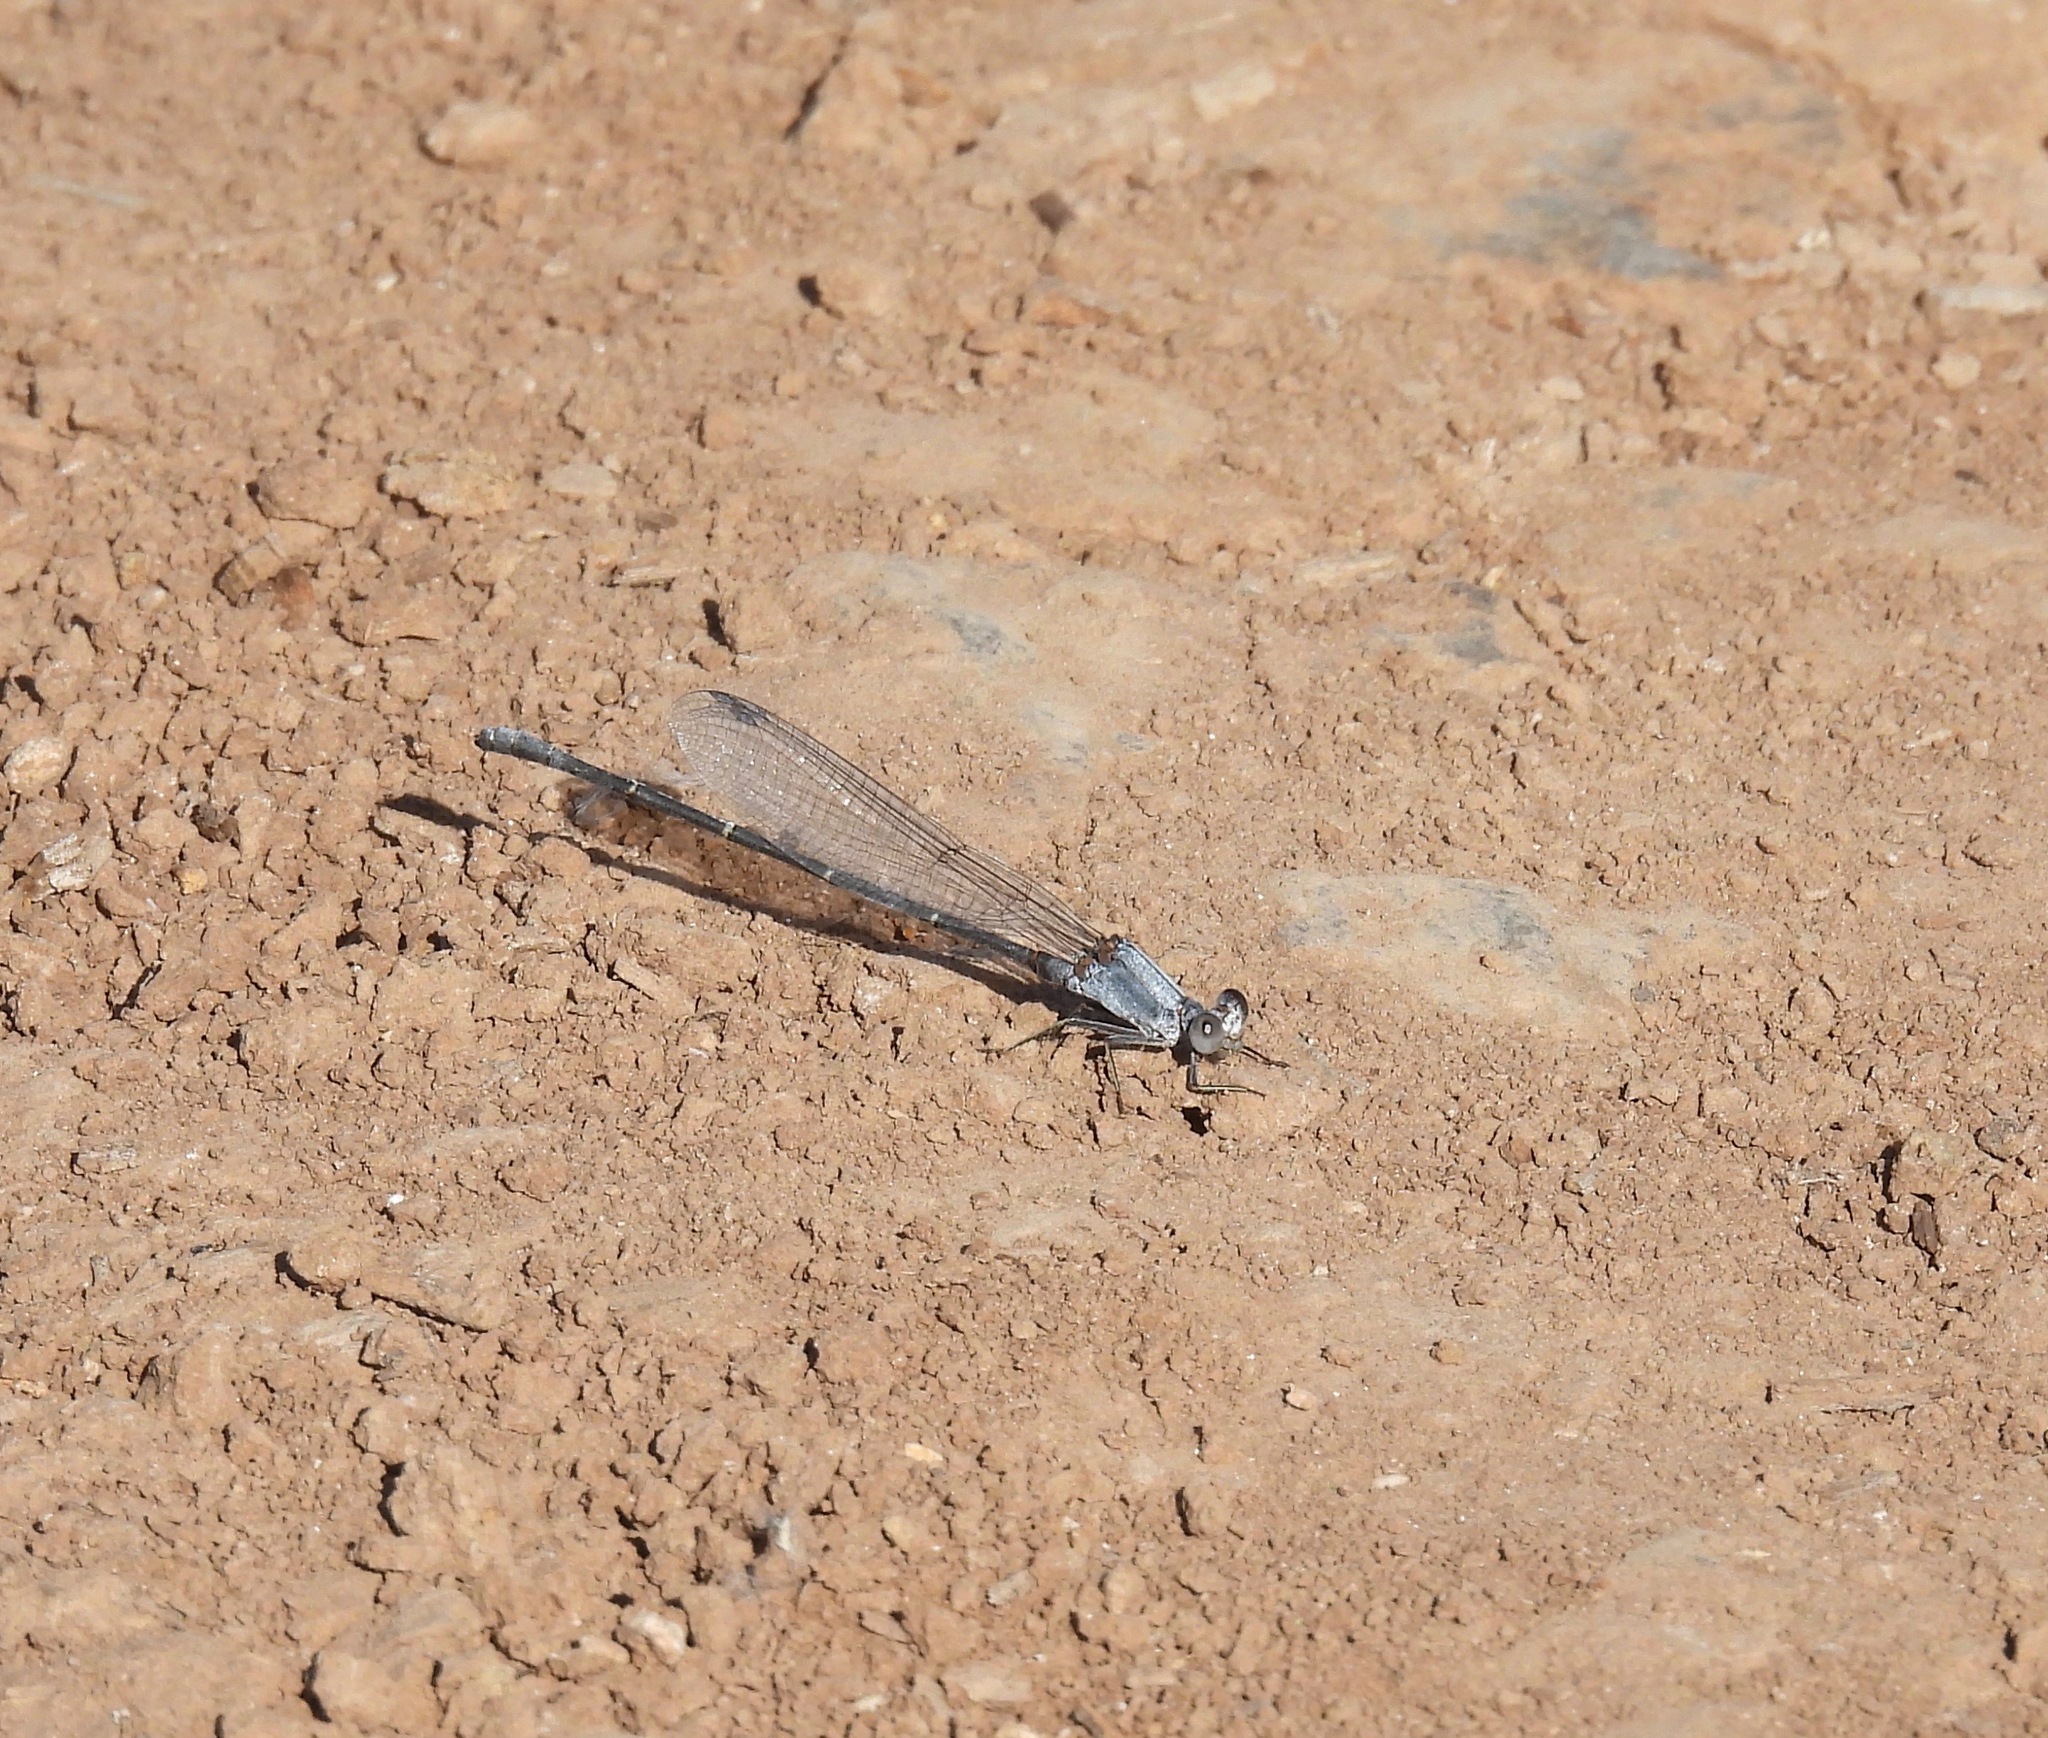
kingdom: Animalia
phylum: Arthropoda
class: Insecta
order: Odonata
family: Coenagrionidae
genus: Argia
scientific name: Argia moesta
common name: Powdered dancer
